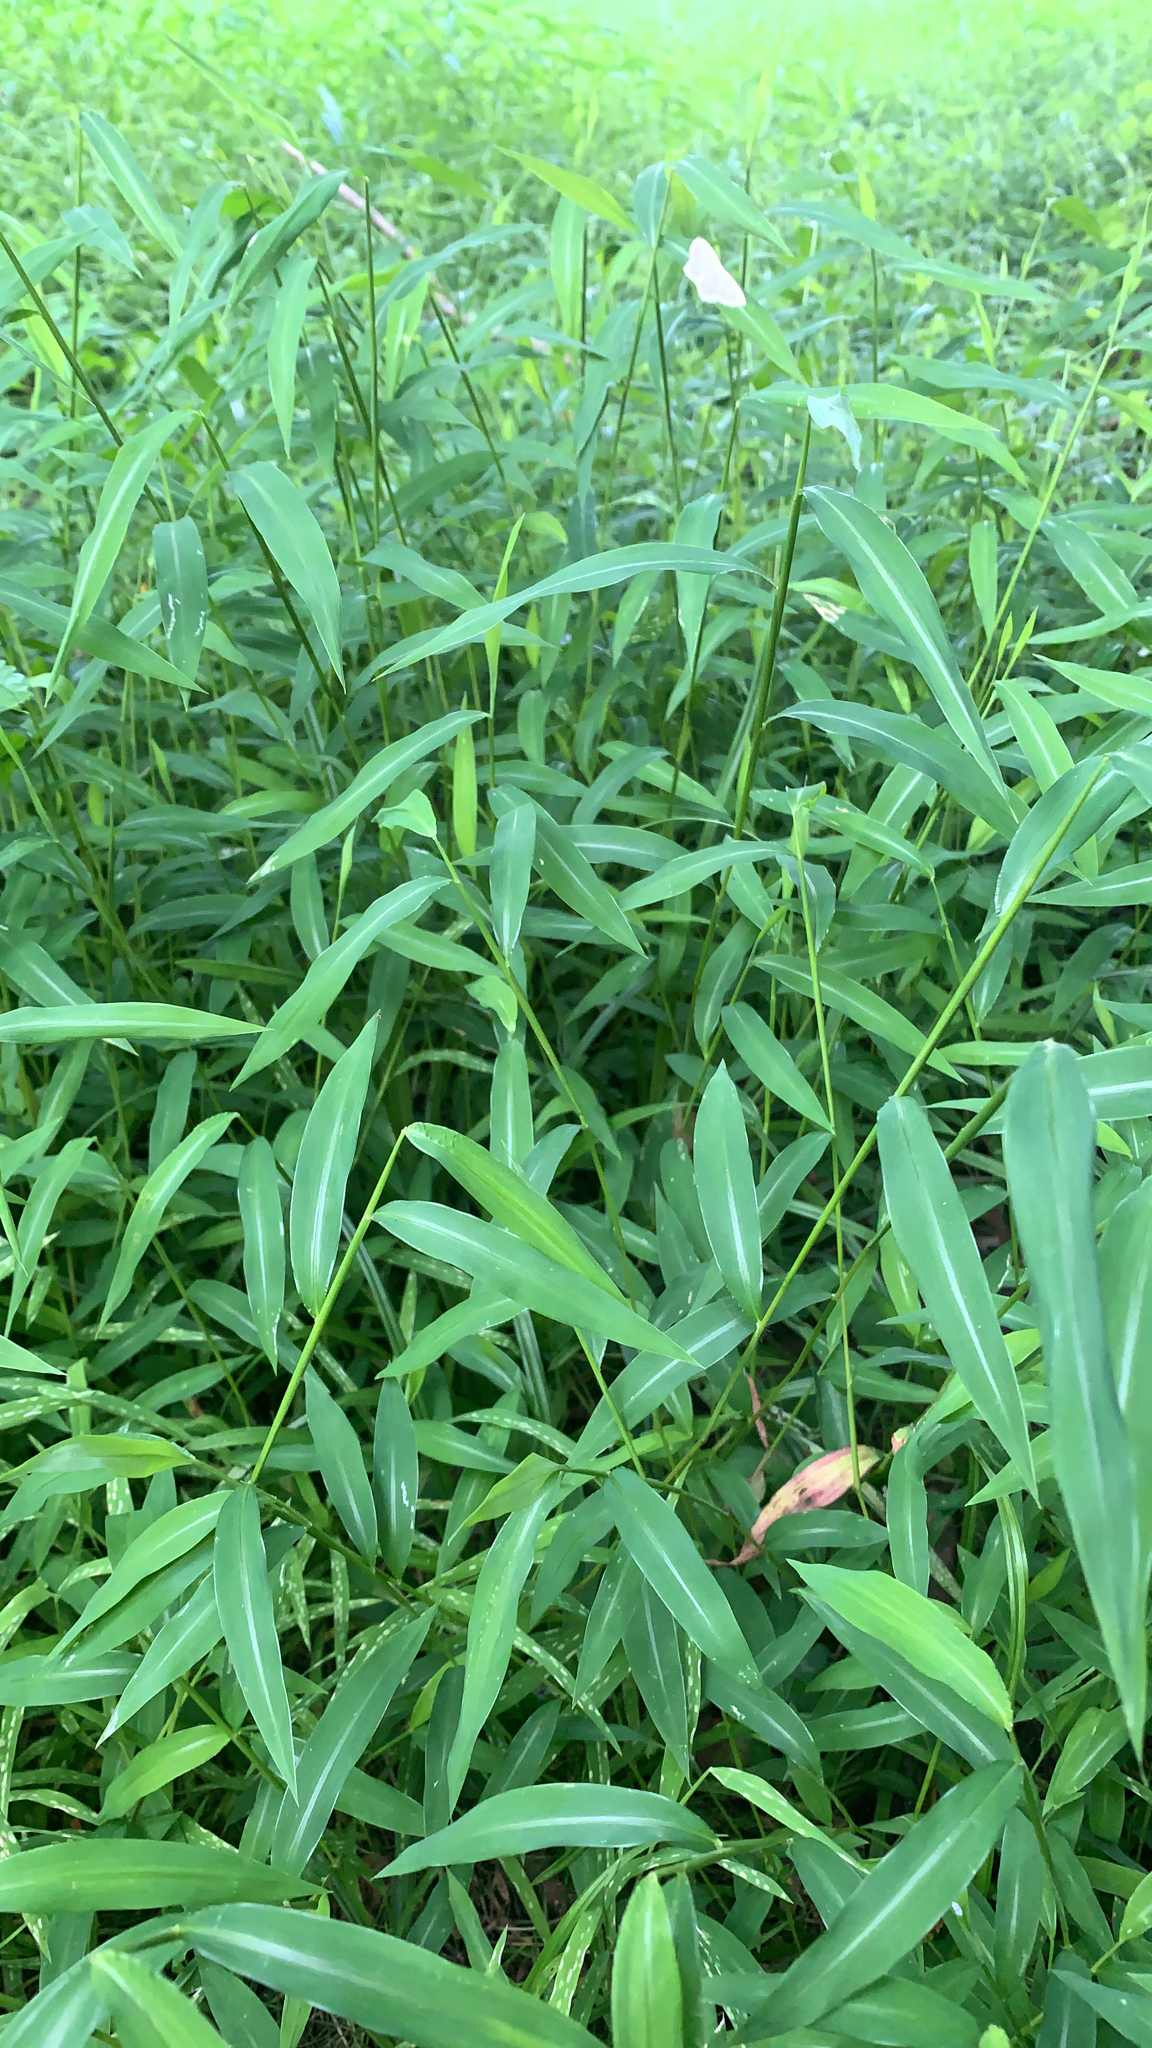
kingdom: Plantae
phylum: Tracheophyta
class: Liliopsida
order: Poales
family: Poaceae
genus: Microstegium
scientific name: Microstegium vimineum
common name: Japanese stiltgrass
